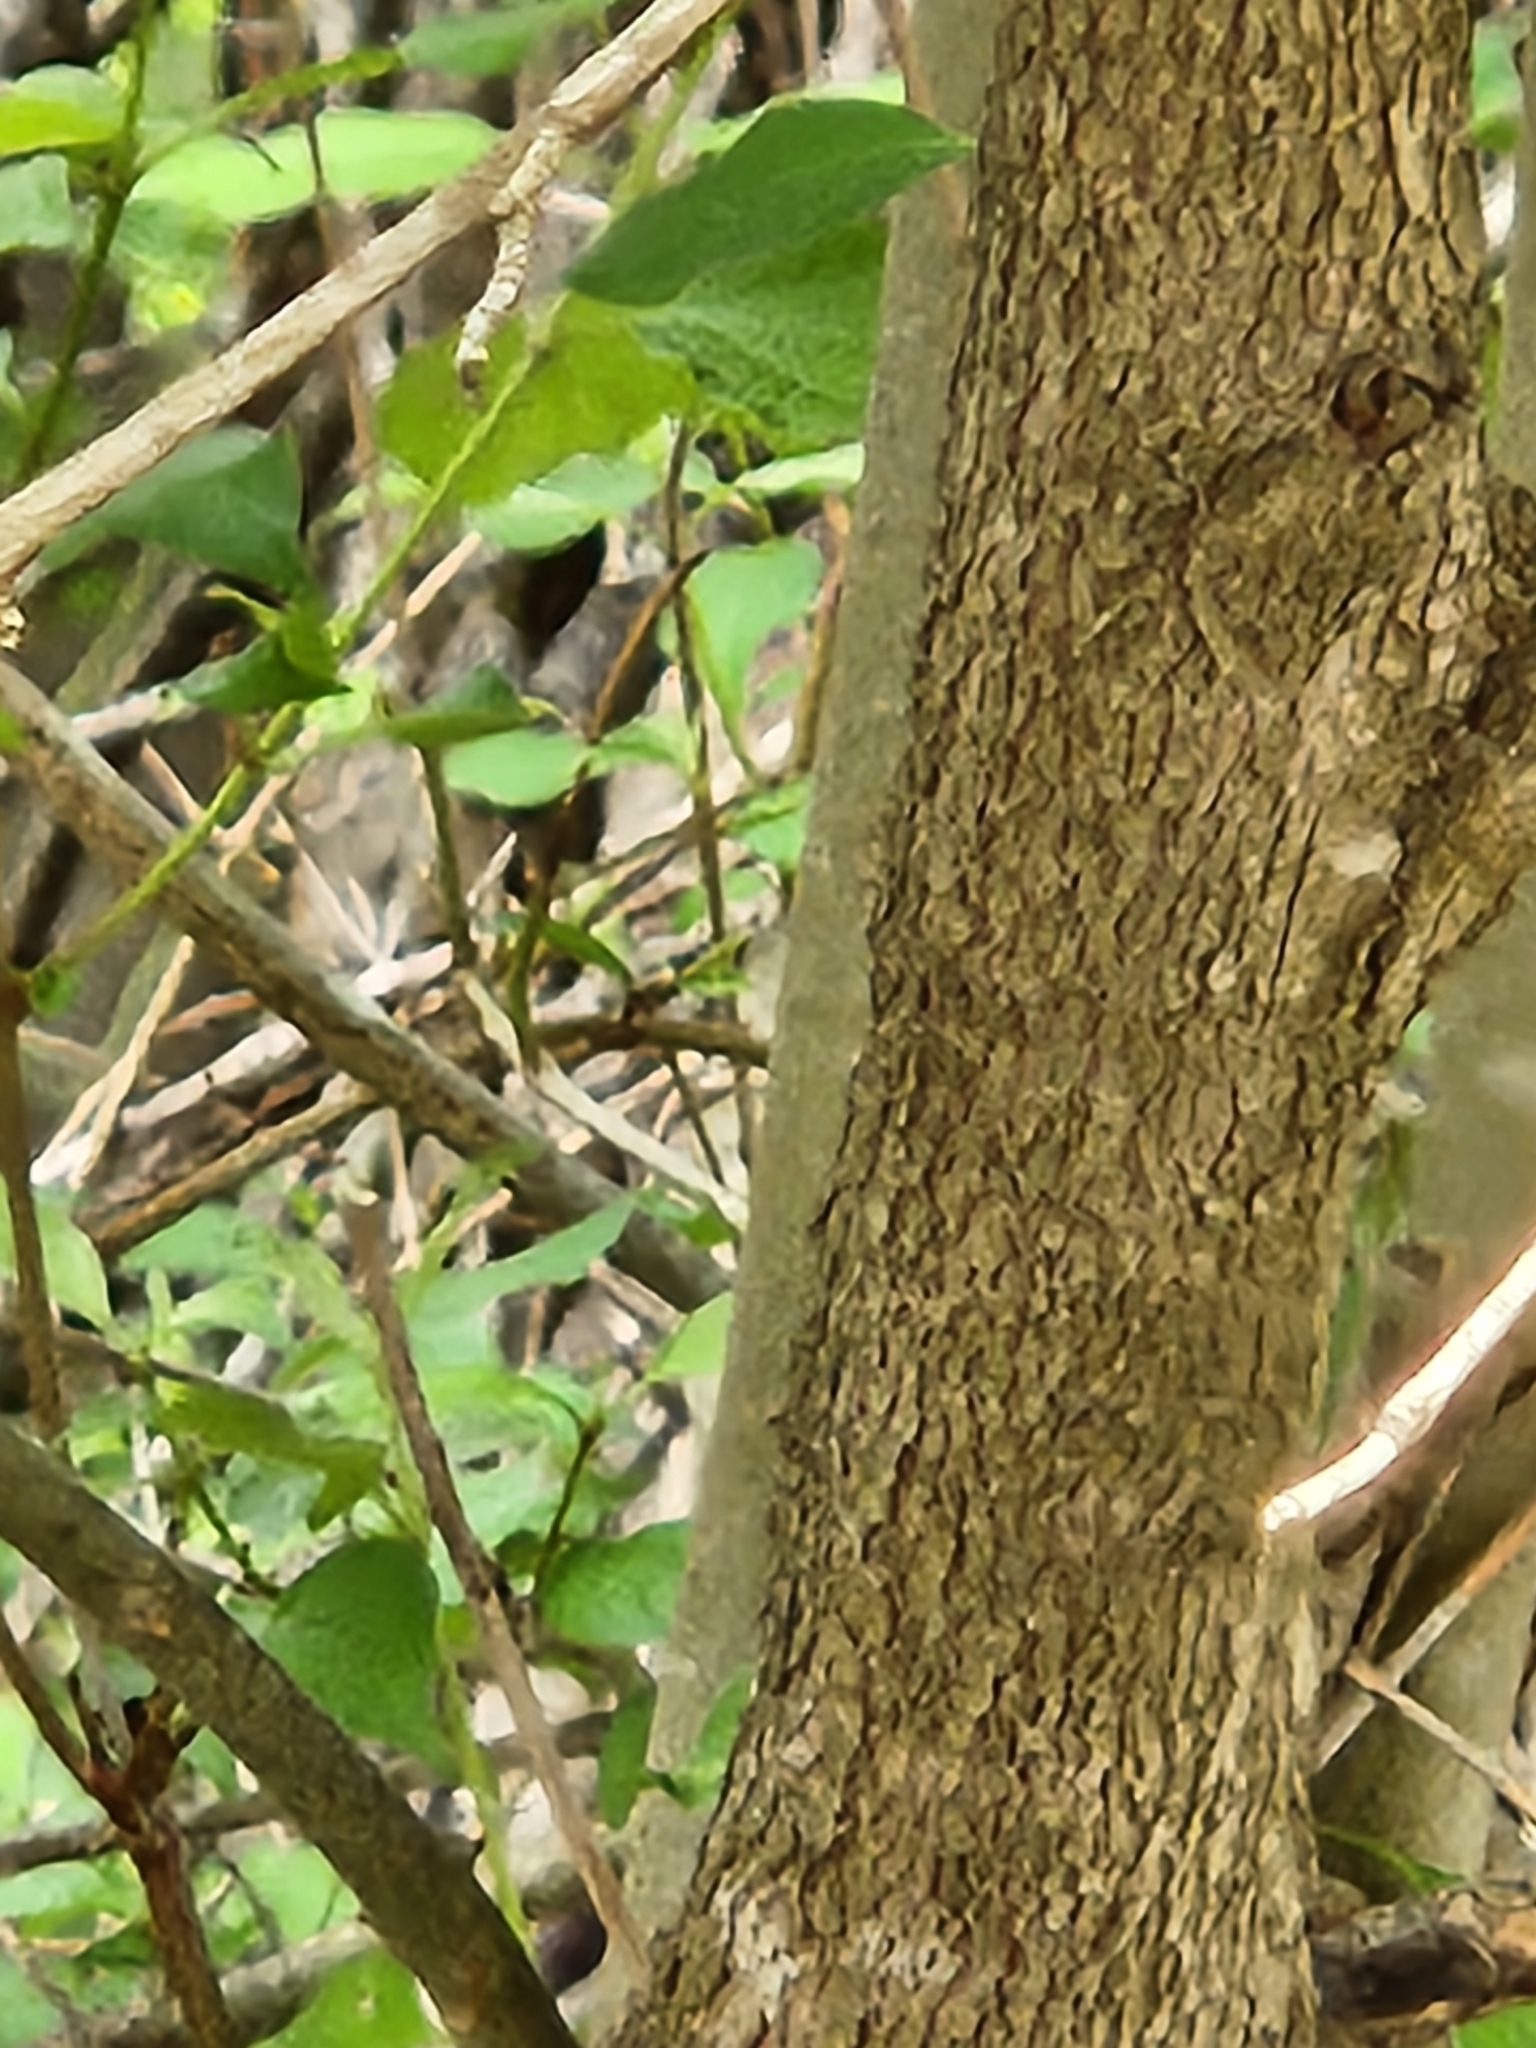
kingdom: Plantae
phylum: Tracheophyta
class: Magnoliopsida
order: Cornales
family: Cornaceae
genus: Cornus
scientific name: Cornus drummondii
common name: Rough-leaf dogwood
